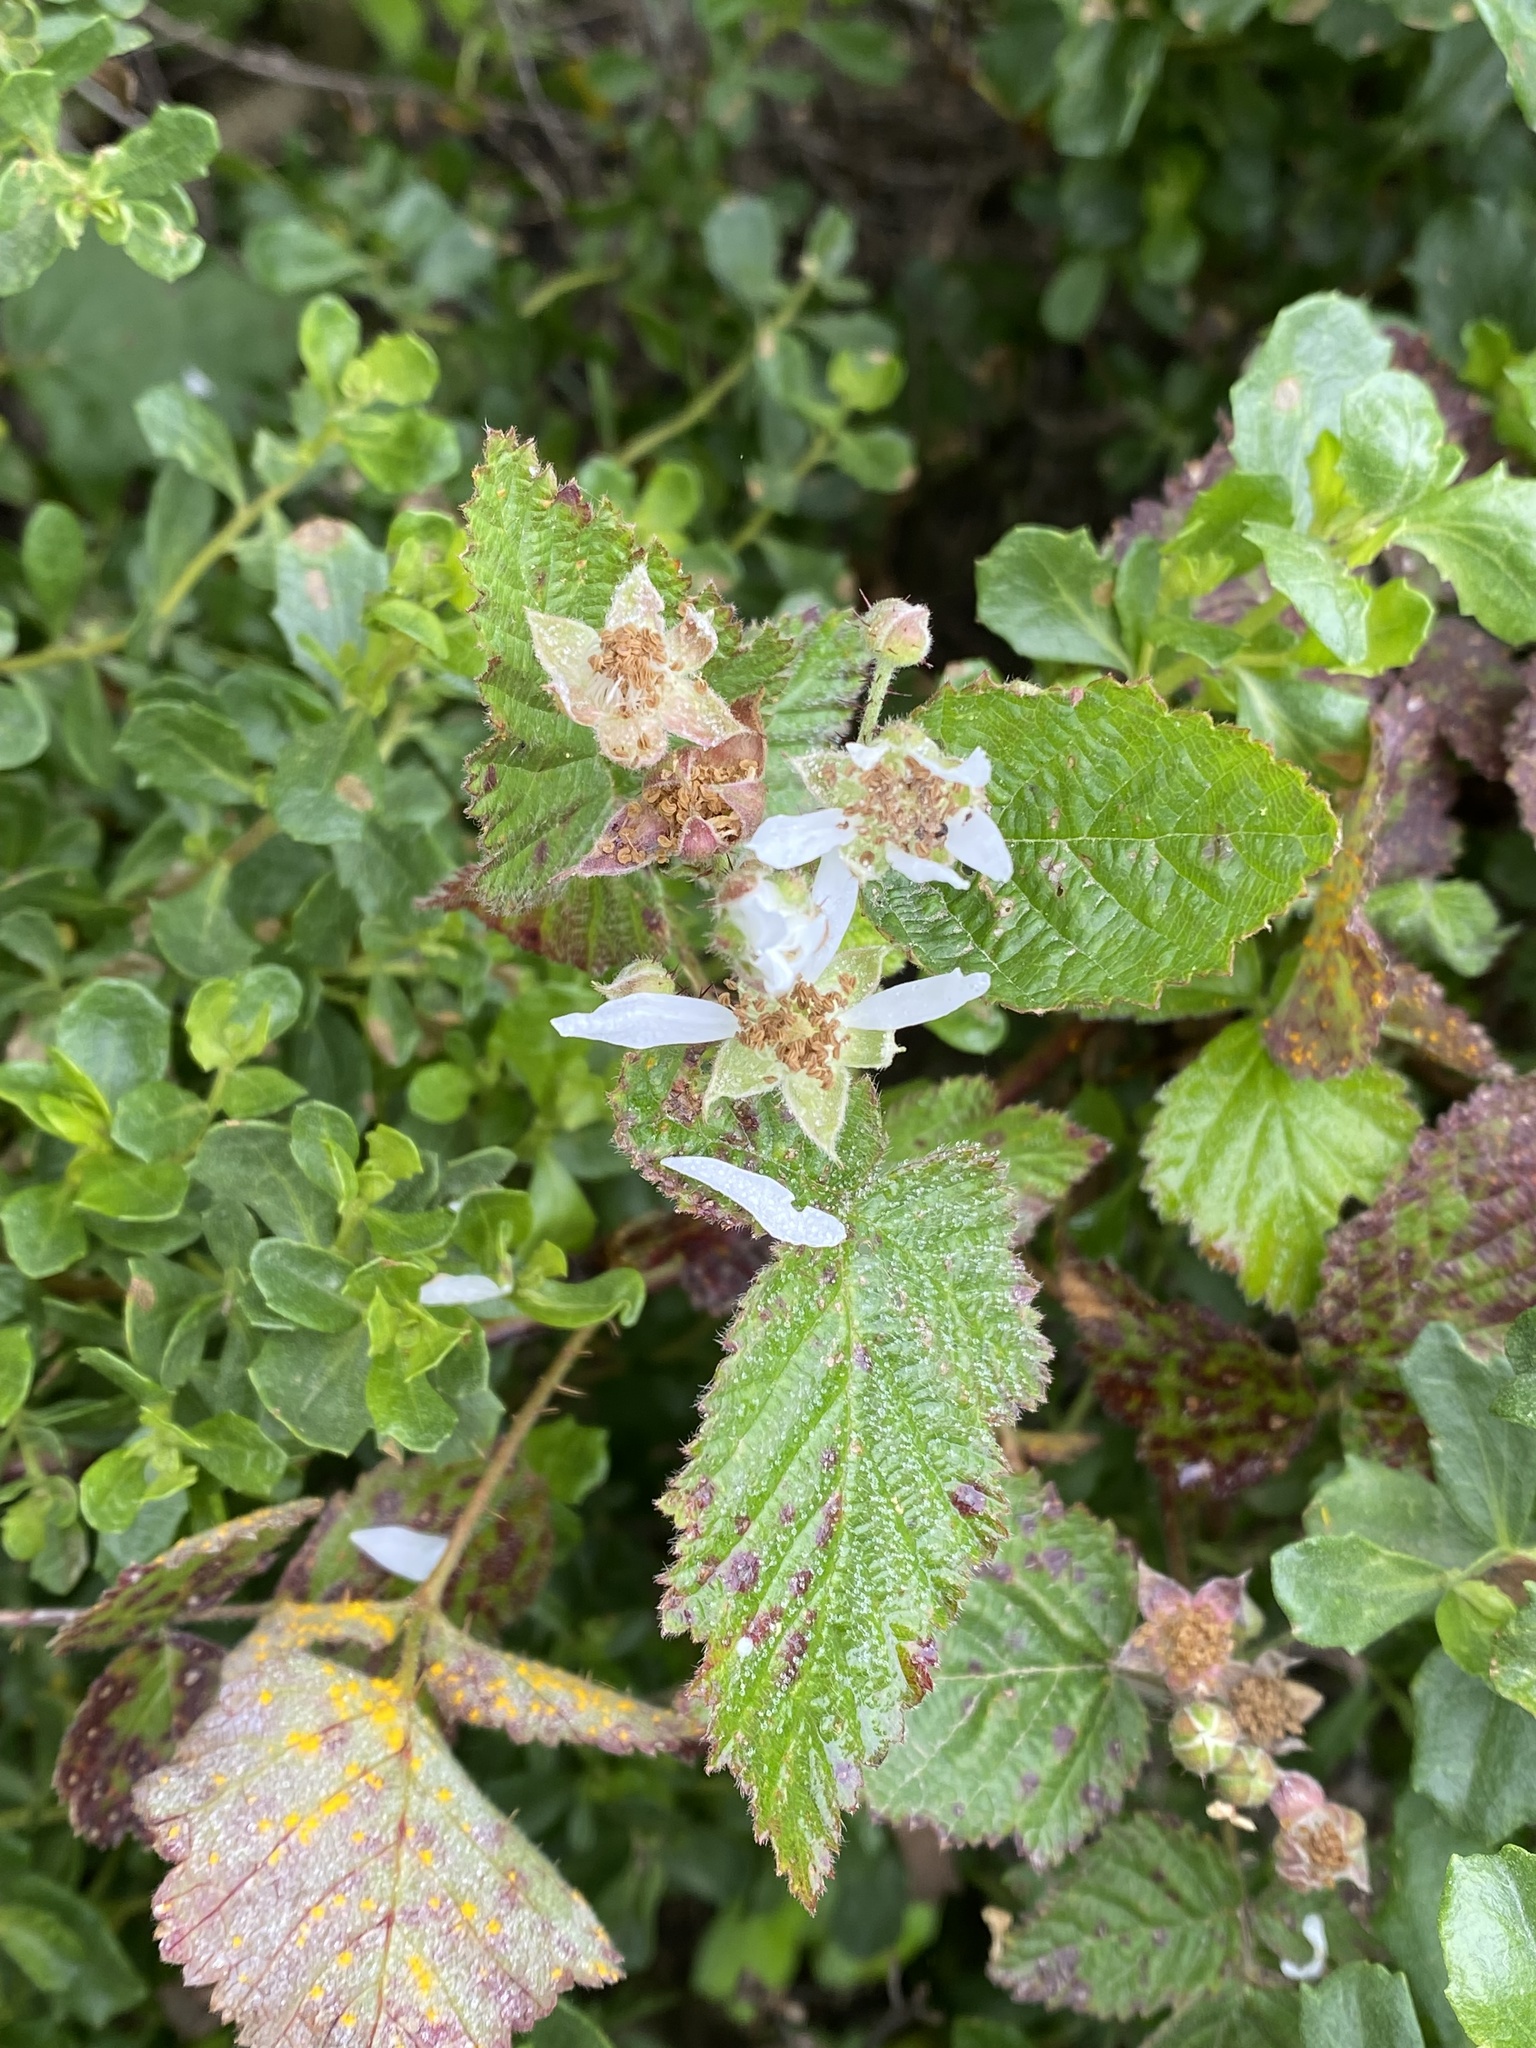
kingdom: Plantae
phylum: Tracheophyta
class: Magnoliopsida
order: Rosales
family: Rosaceae
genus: Rubus
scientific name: Rubus ursinus
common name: Pacific blackberry
